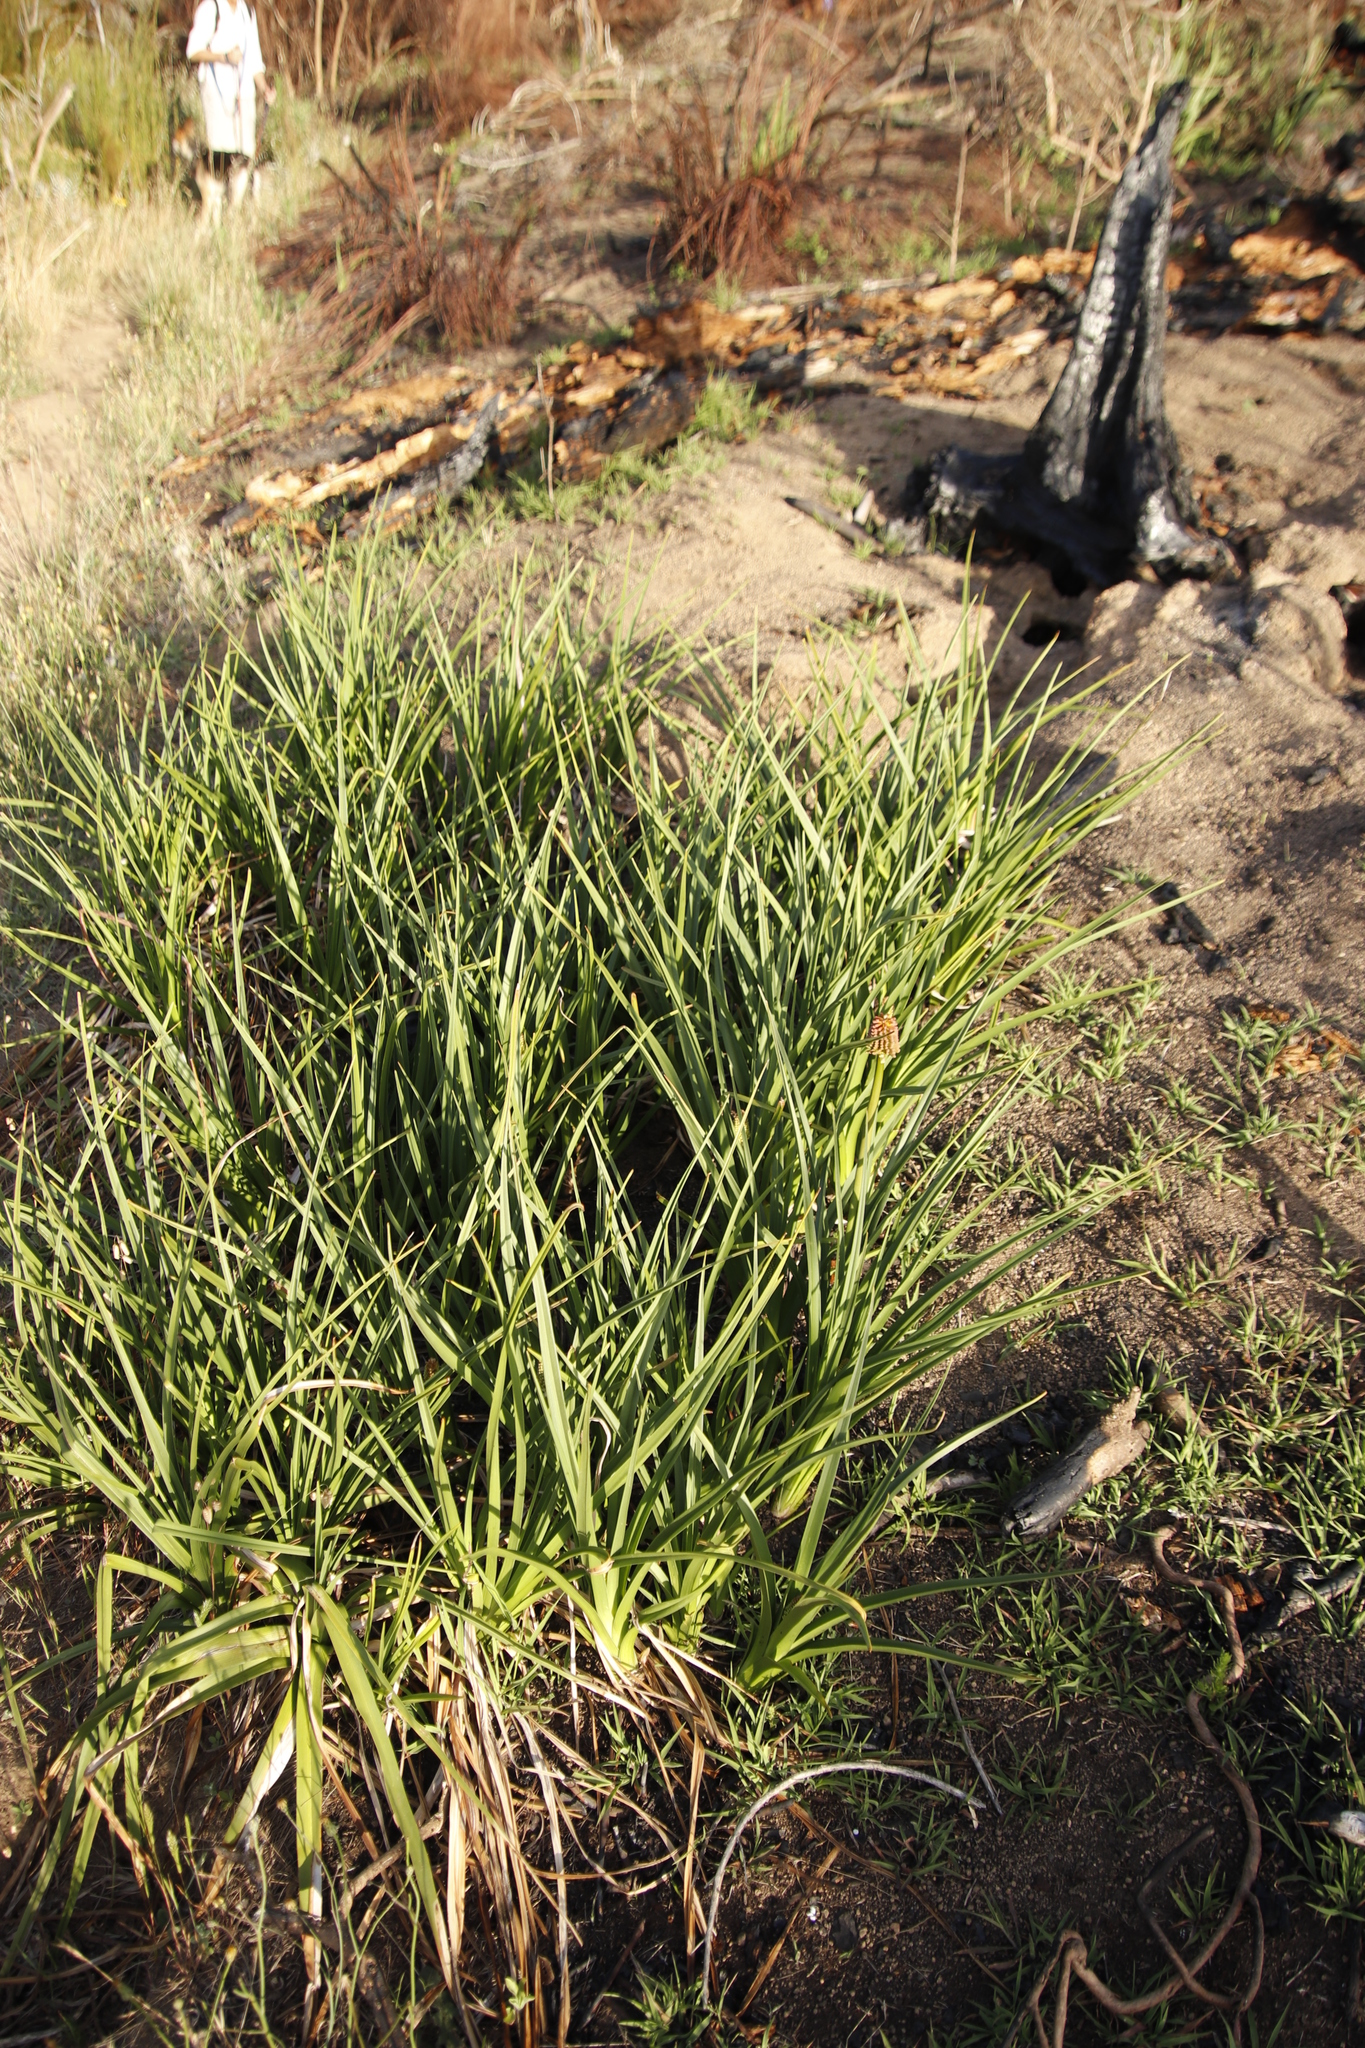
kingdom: Plantae
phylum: Tracheophyta
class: Liliopsida
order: Asparagales
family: Asphodelaceae
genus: Kniphofia
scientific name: Kniphofia uvaria
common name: Red-hot-poker
